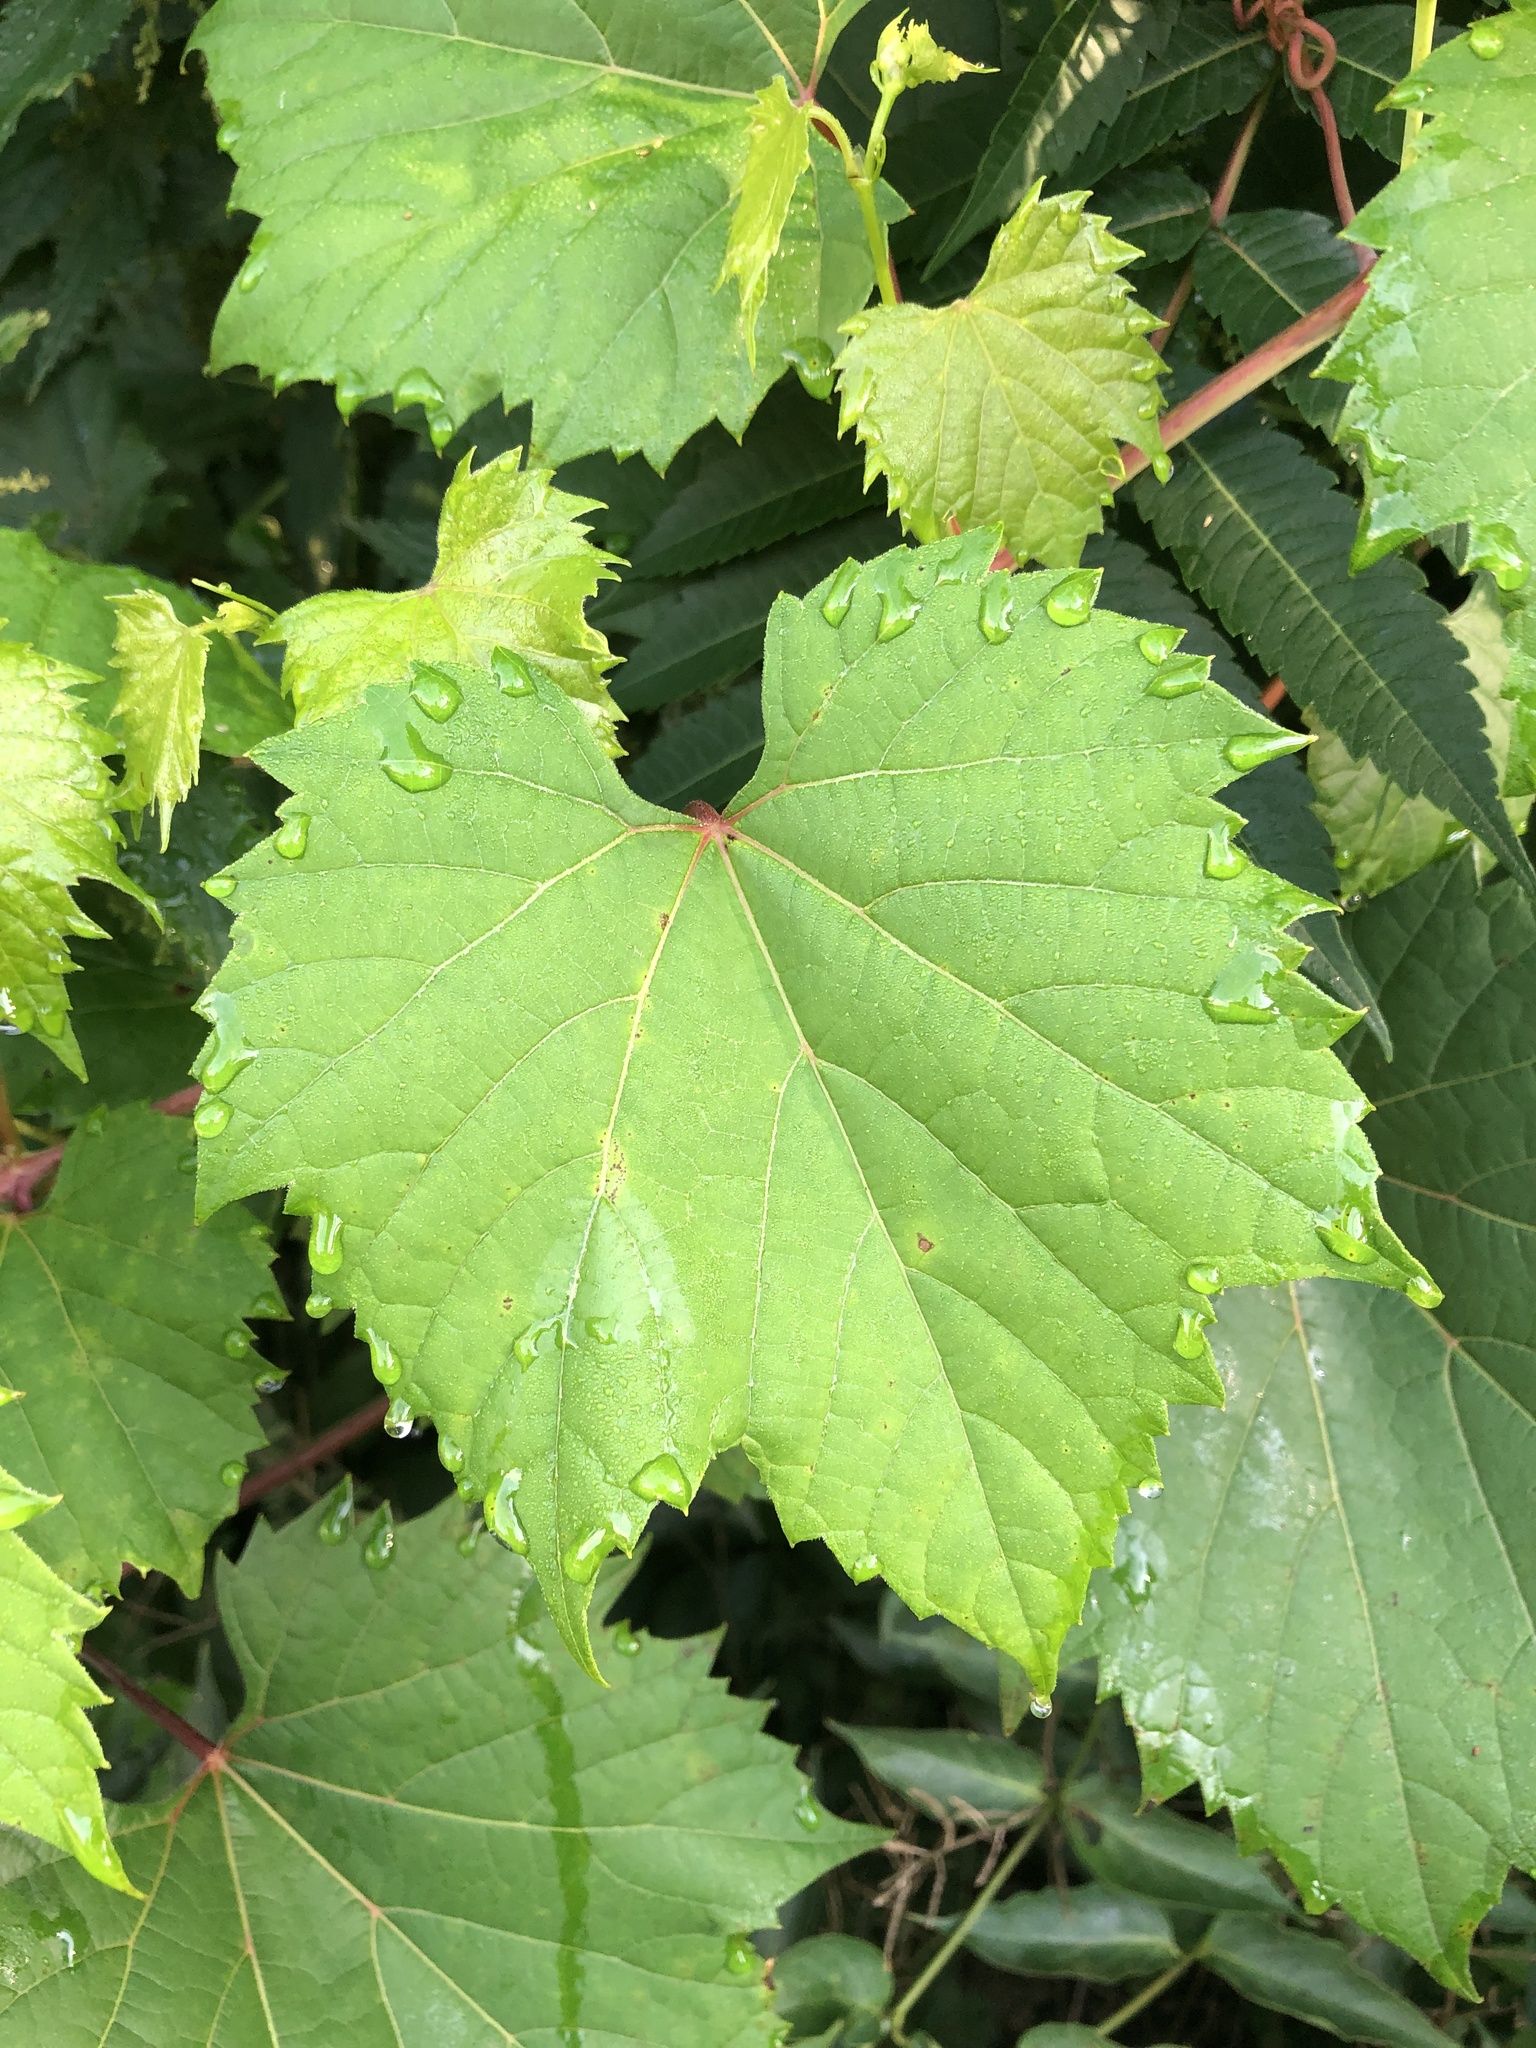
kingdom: Plantae
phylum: Tracheophyta
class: Magnoliopsida
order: Vitales
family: Vitaceae
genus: Vitis
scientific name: Vitis riparia
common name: Frost grape
